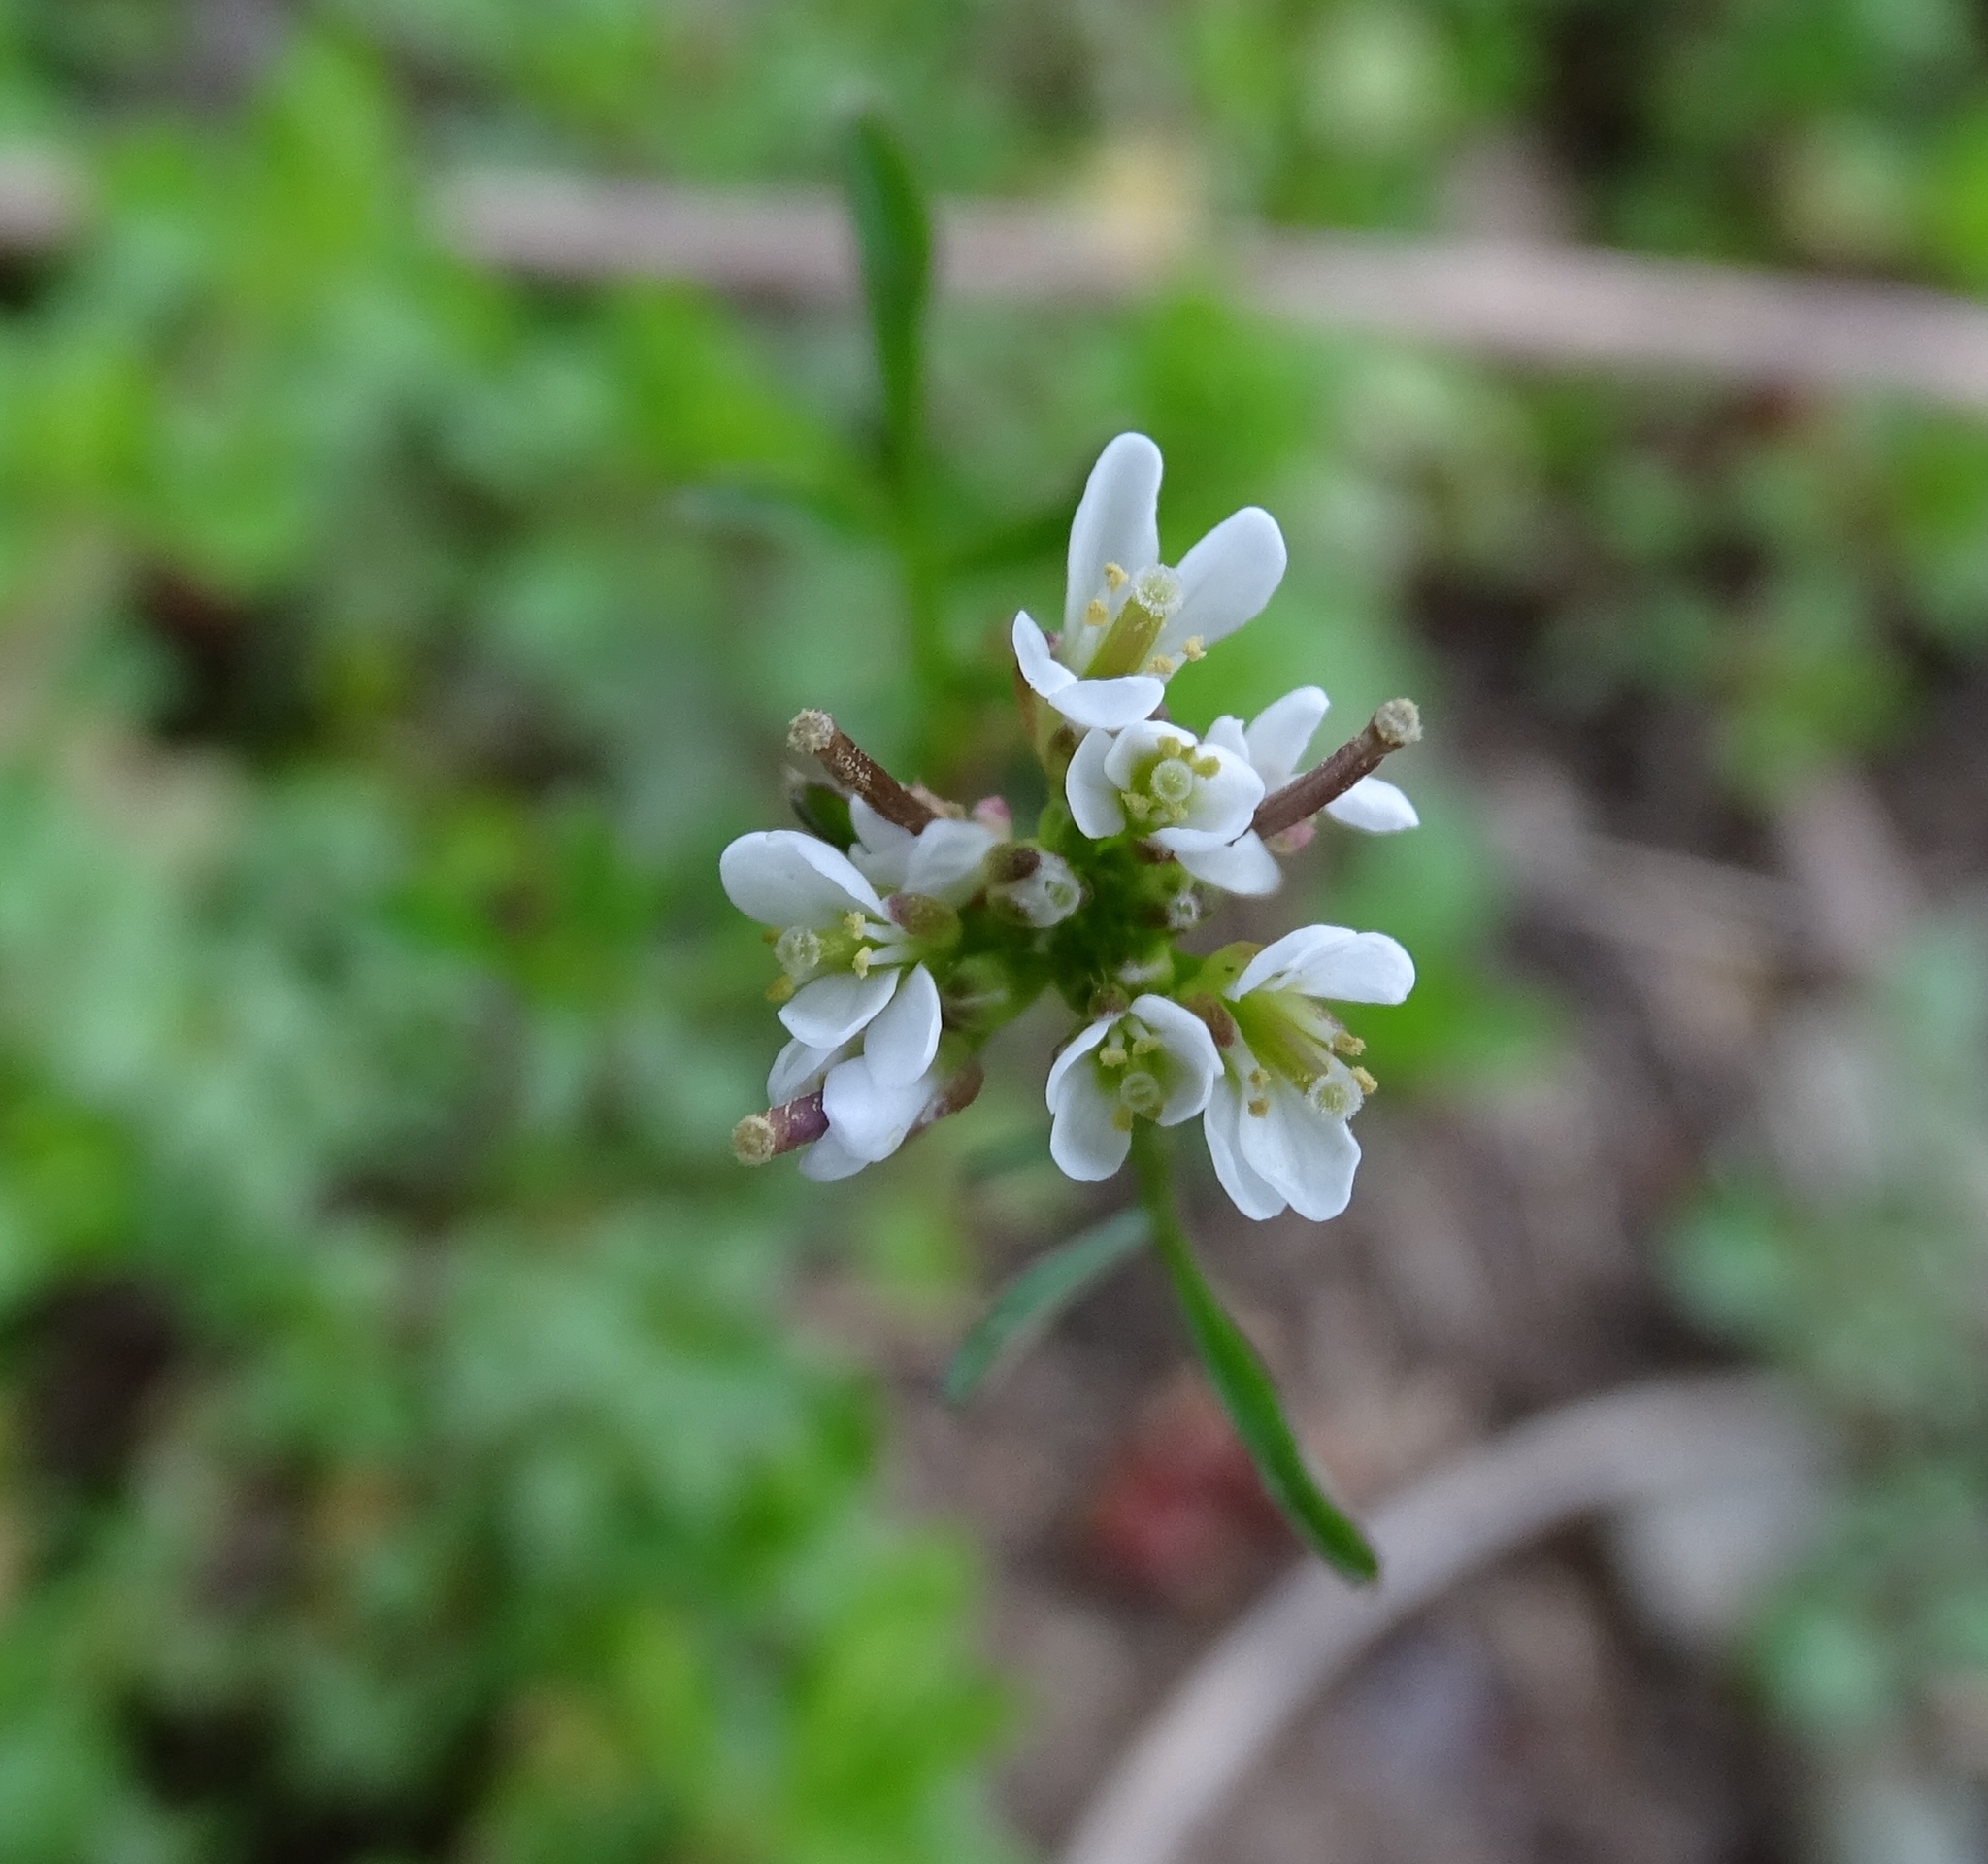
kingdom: Plantae
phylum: Tracheophyta
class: Magnoliopsida
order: Brassicales
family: Brassicaceae
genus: Cardamine
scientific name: Cardamine hirsuta
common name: Hairy bittercress
